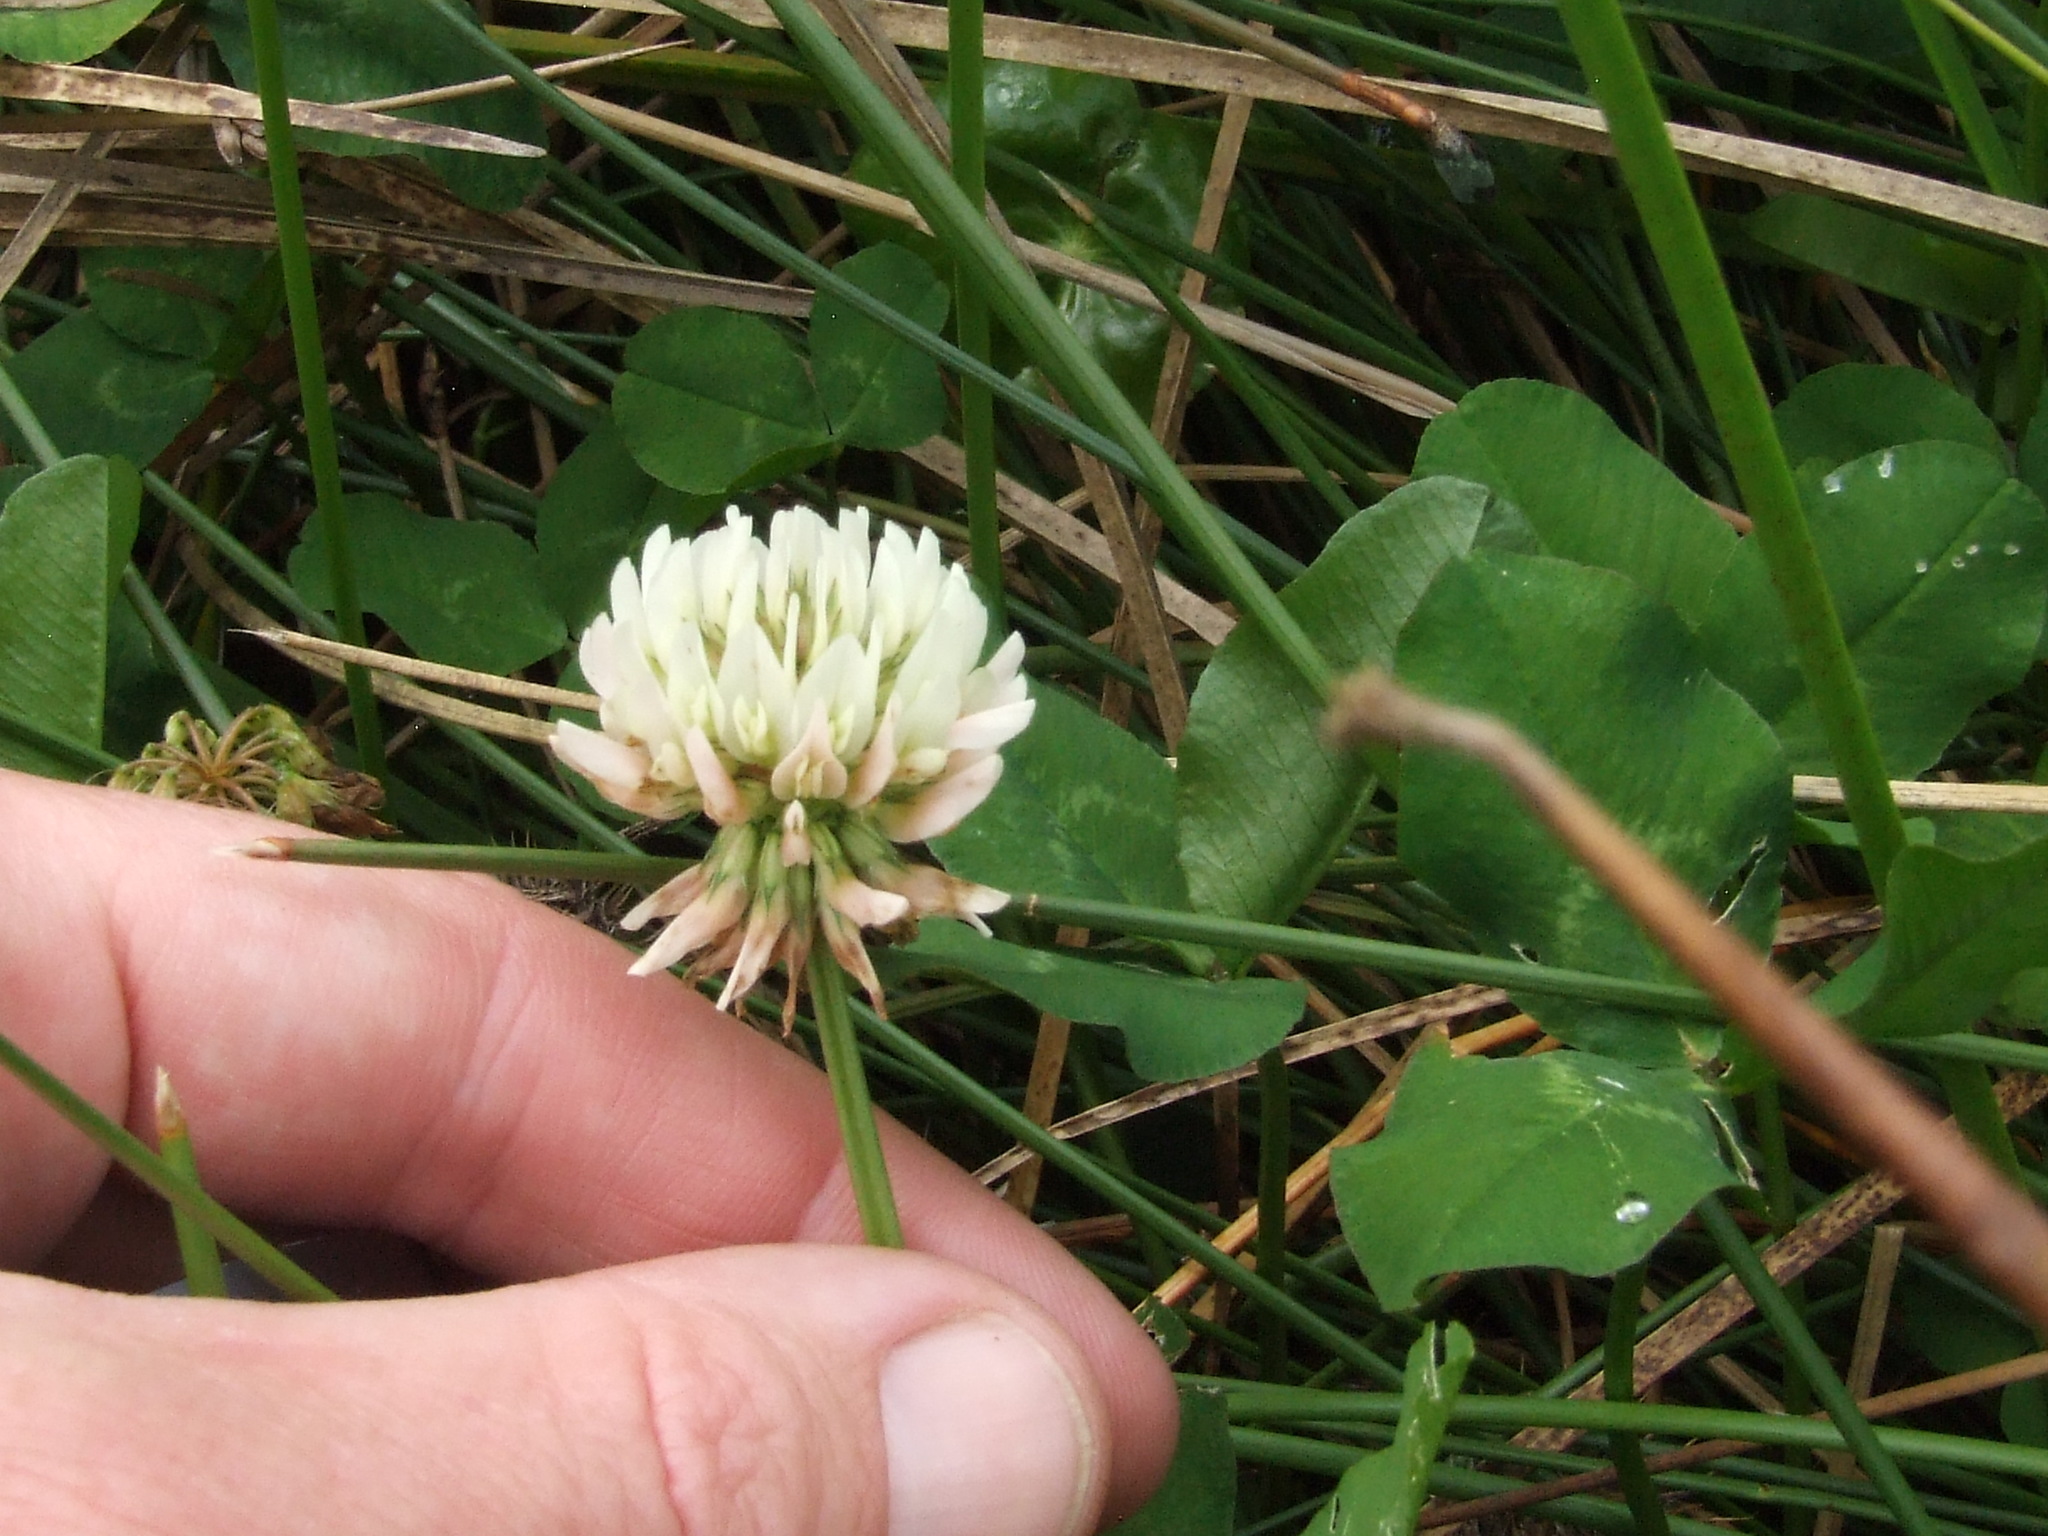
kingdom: Plantae
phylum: Tracheophyta
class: Magnoliopsida
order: Fabales
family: Fabaceae
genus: Trifolium
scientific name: Trifolium repens
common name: White clover
